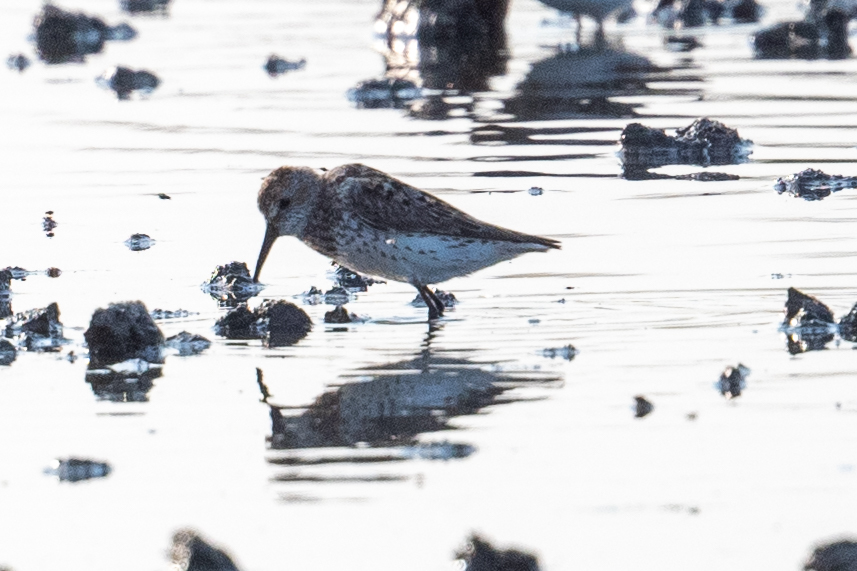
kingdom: Animalia
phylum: Chordata
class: Aves
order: Charadriiformes
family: Scolopacidae
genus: Calidris
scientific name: Calidris mauri
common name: Western sandpiper
